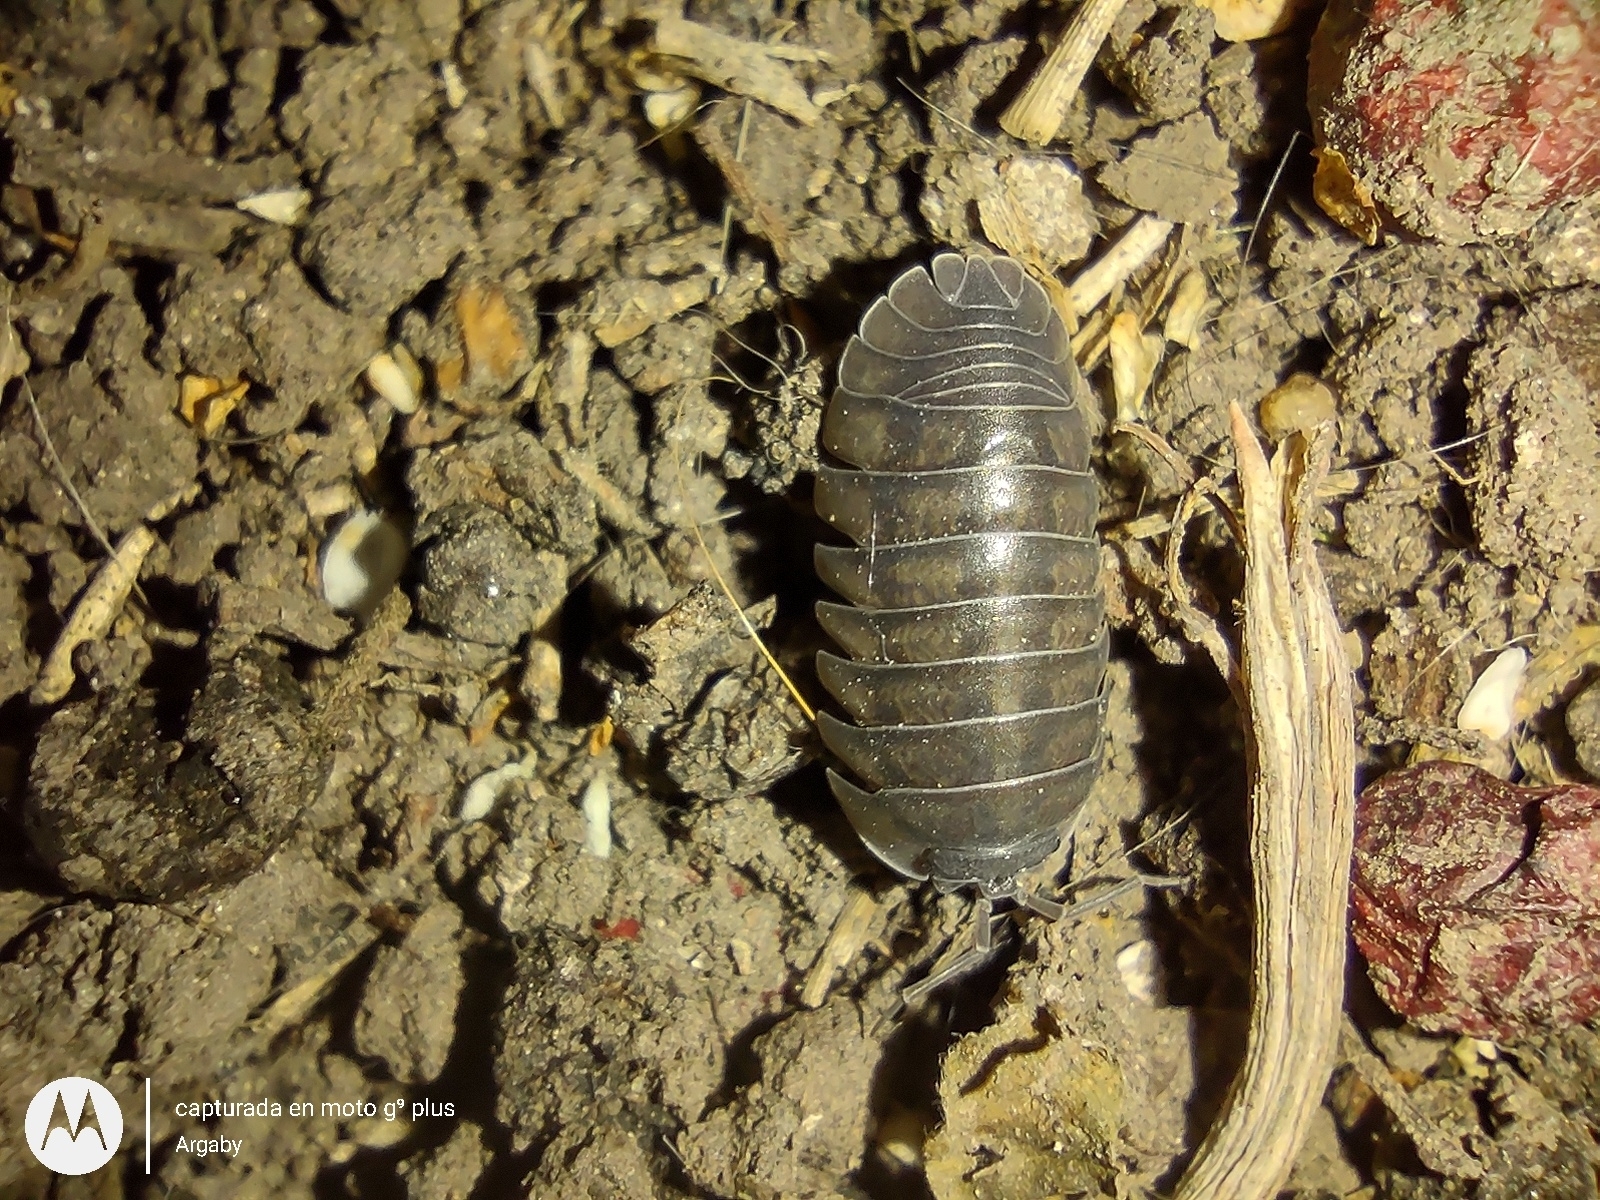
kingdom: Animalia
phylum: Arthropoda
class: Malacostraca
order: Isopoda
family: Armadillidiidae
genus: Armadillidium
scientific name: Armadillidium nasatum
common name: Isopod
